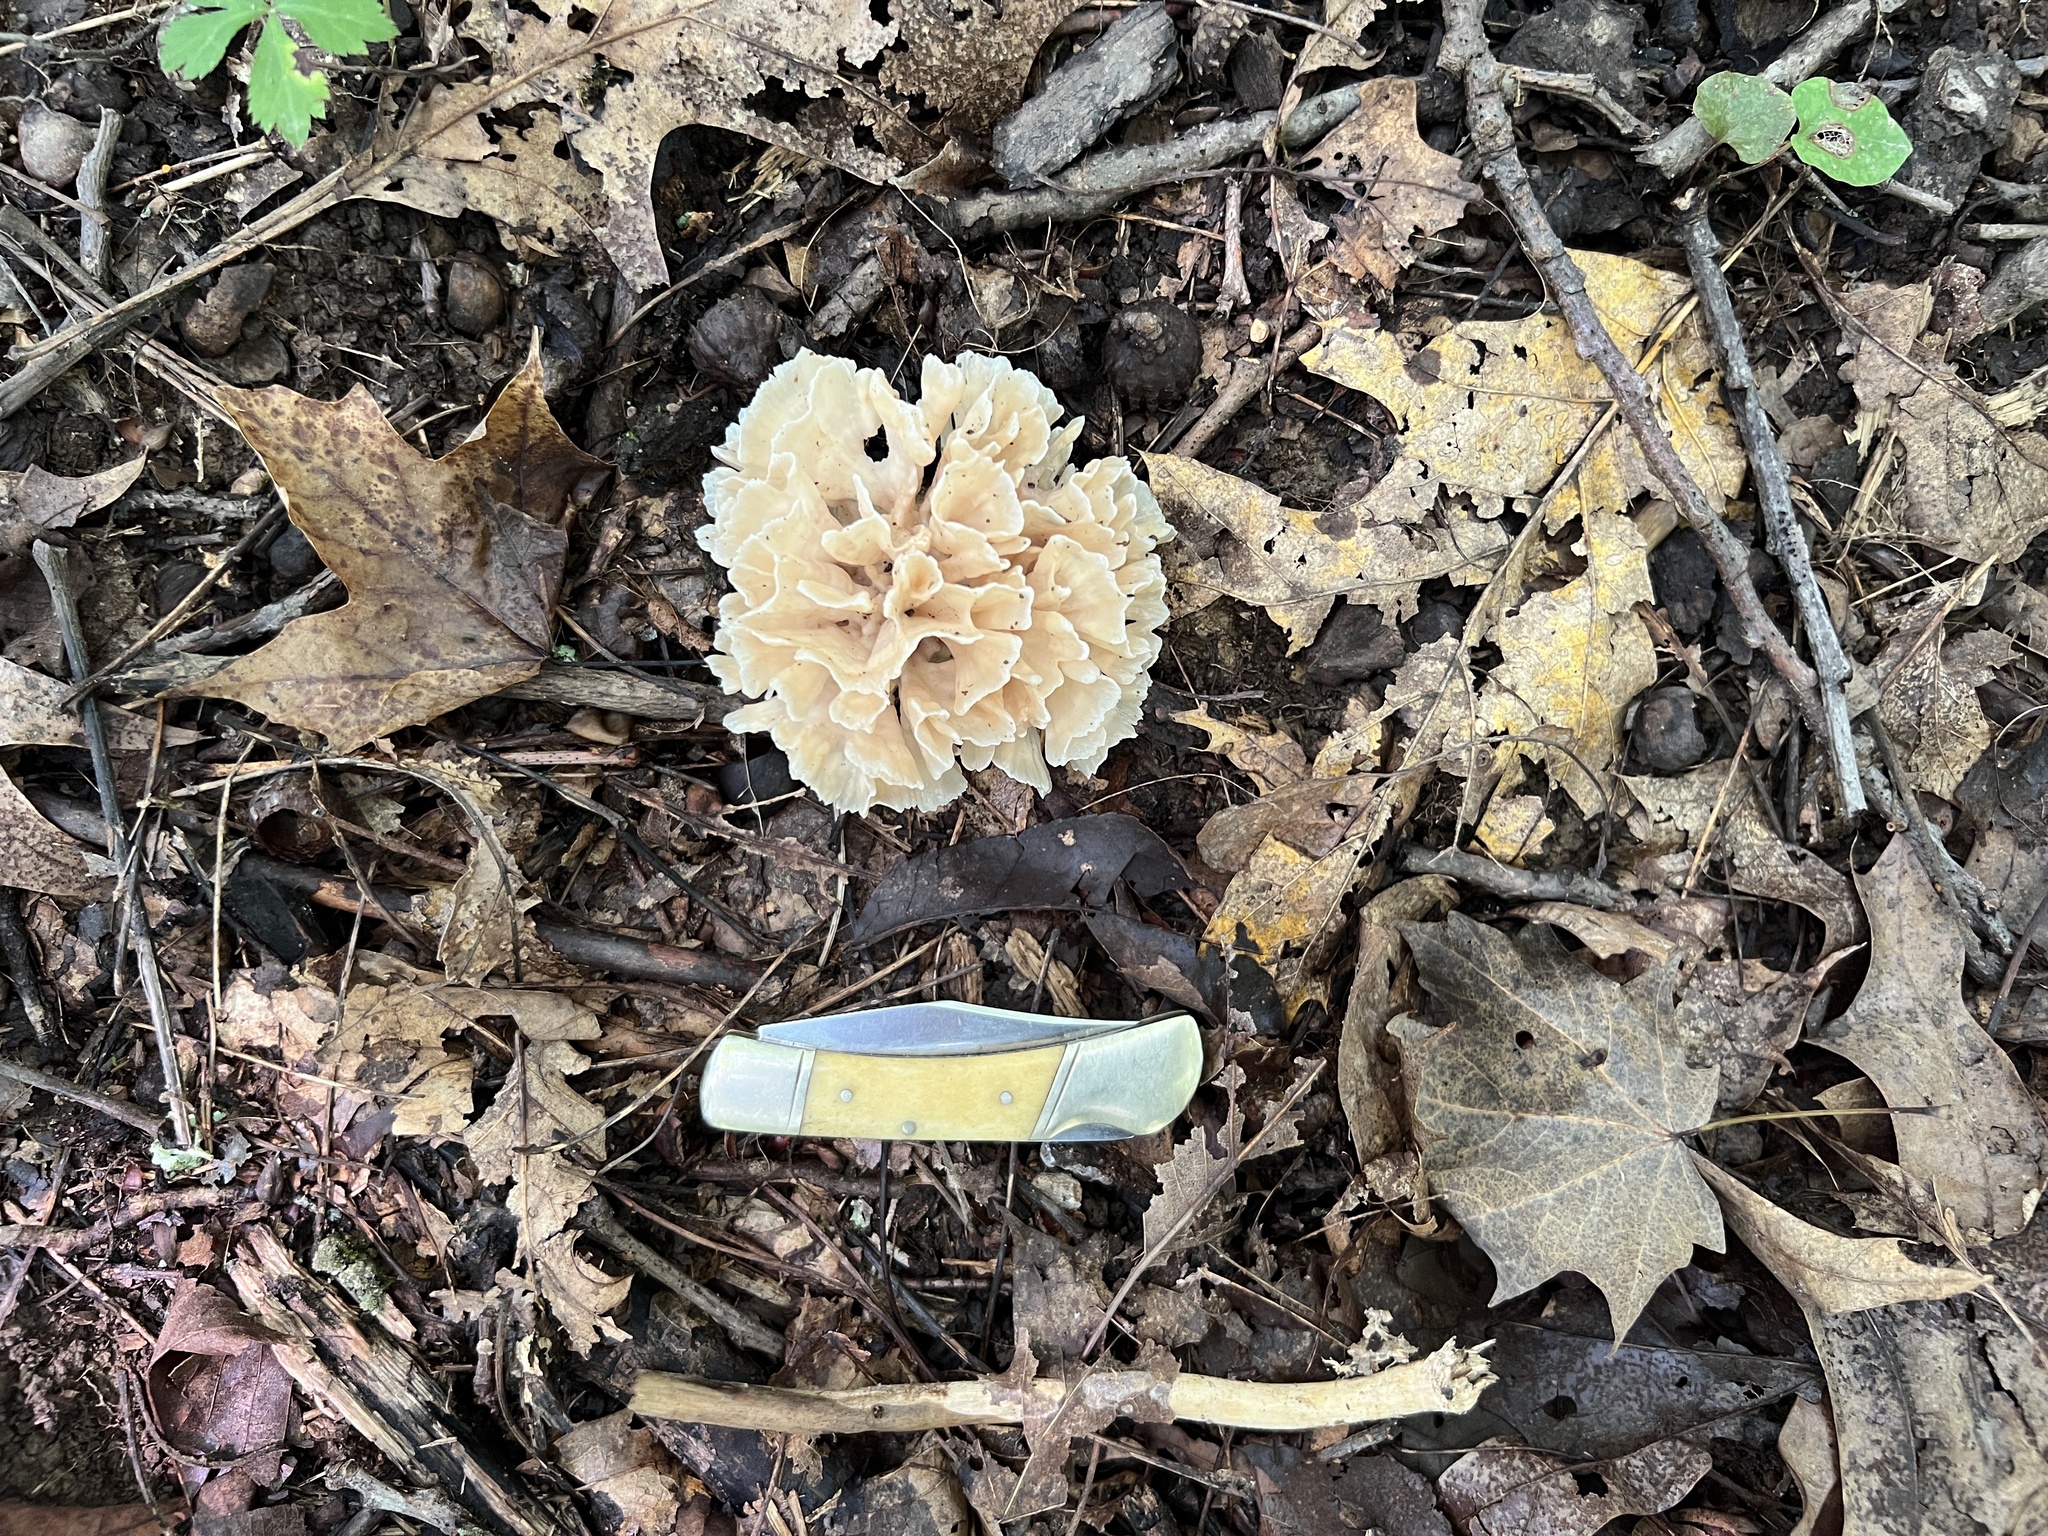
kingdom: Fungi
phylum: Basidiomycota
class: Agaricomycetes
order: Polyporales
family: Sparassidaceae
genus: Sparassis
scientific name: Sparassis spathulata
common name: Eastern cauliflower mushroom
